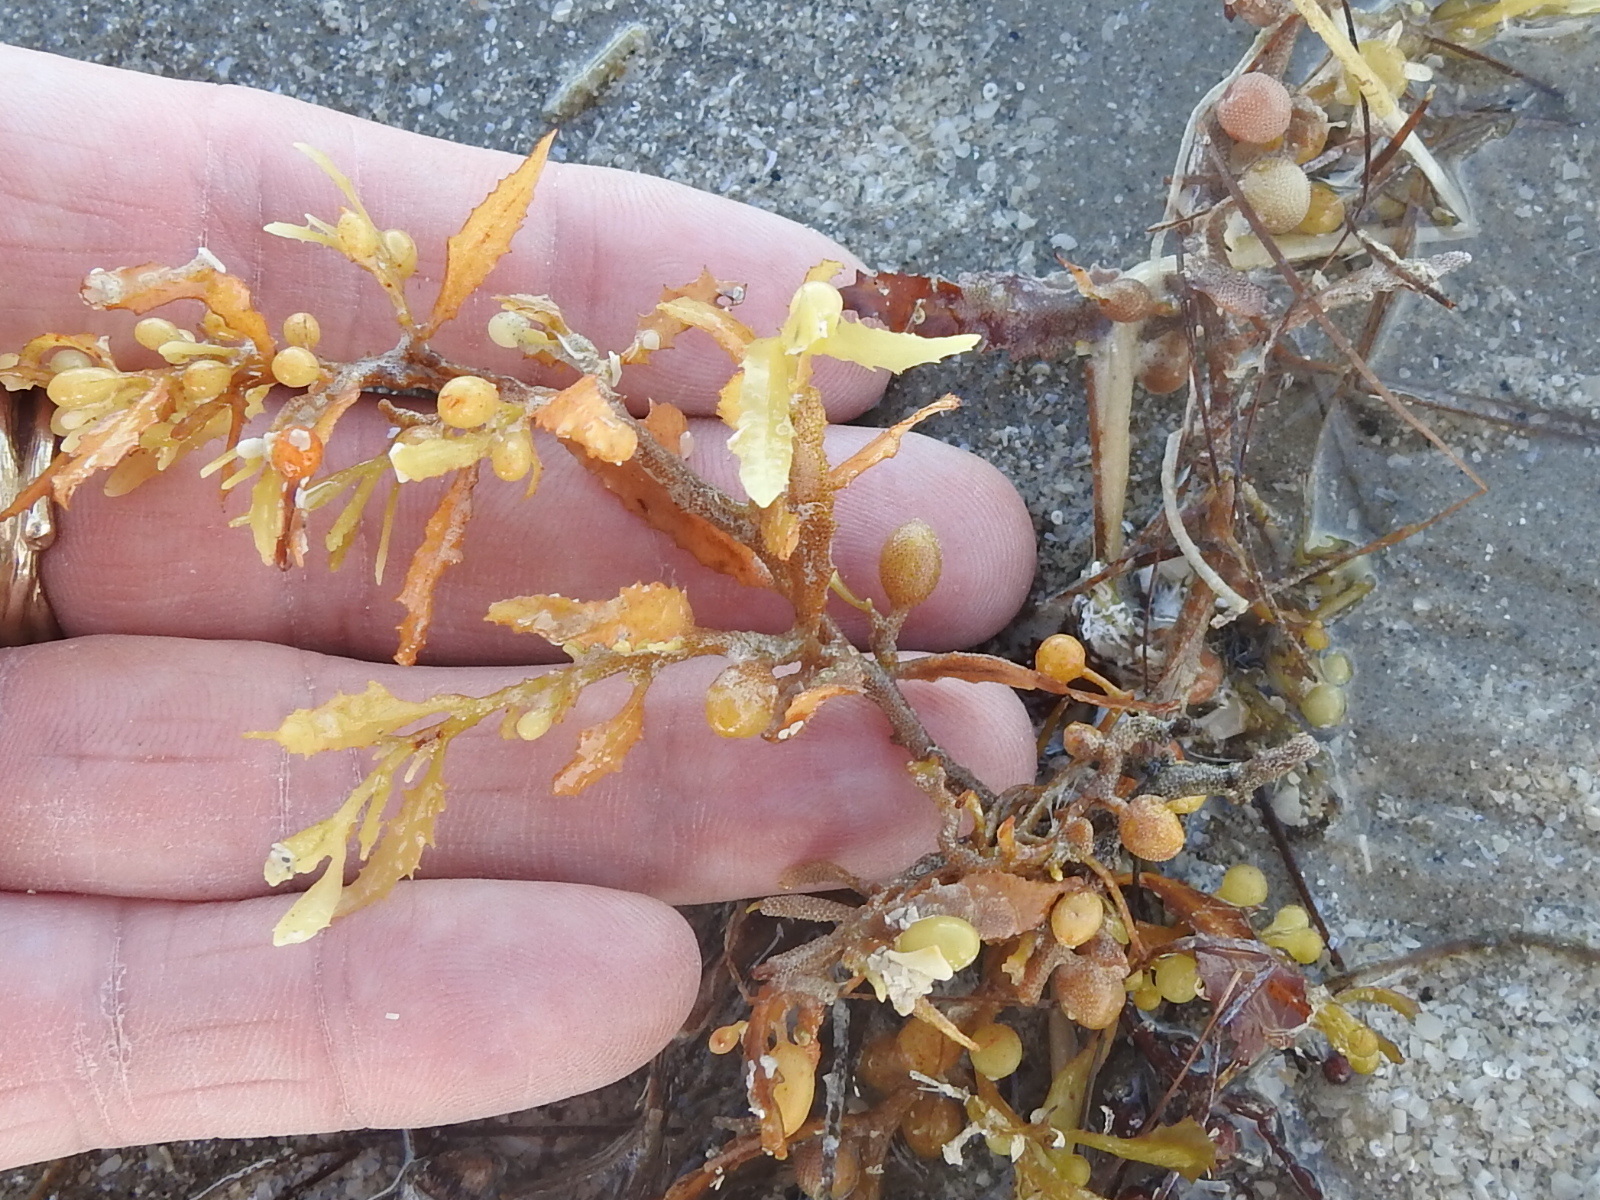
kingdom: Chromista
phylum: Ochrophyta
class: Phaeophyceae
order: Fucales
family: Sargassaceae
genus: Sargassum
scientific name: Sargassum fluitans
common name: Sargassum seaweed
